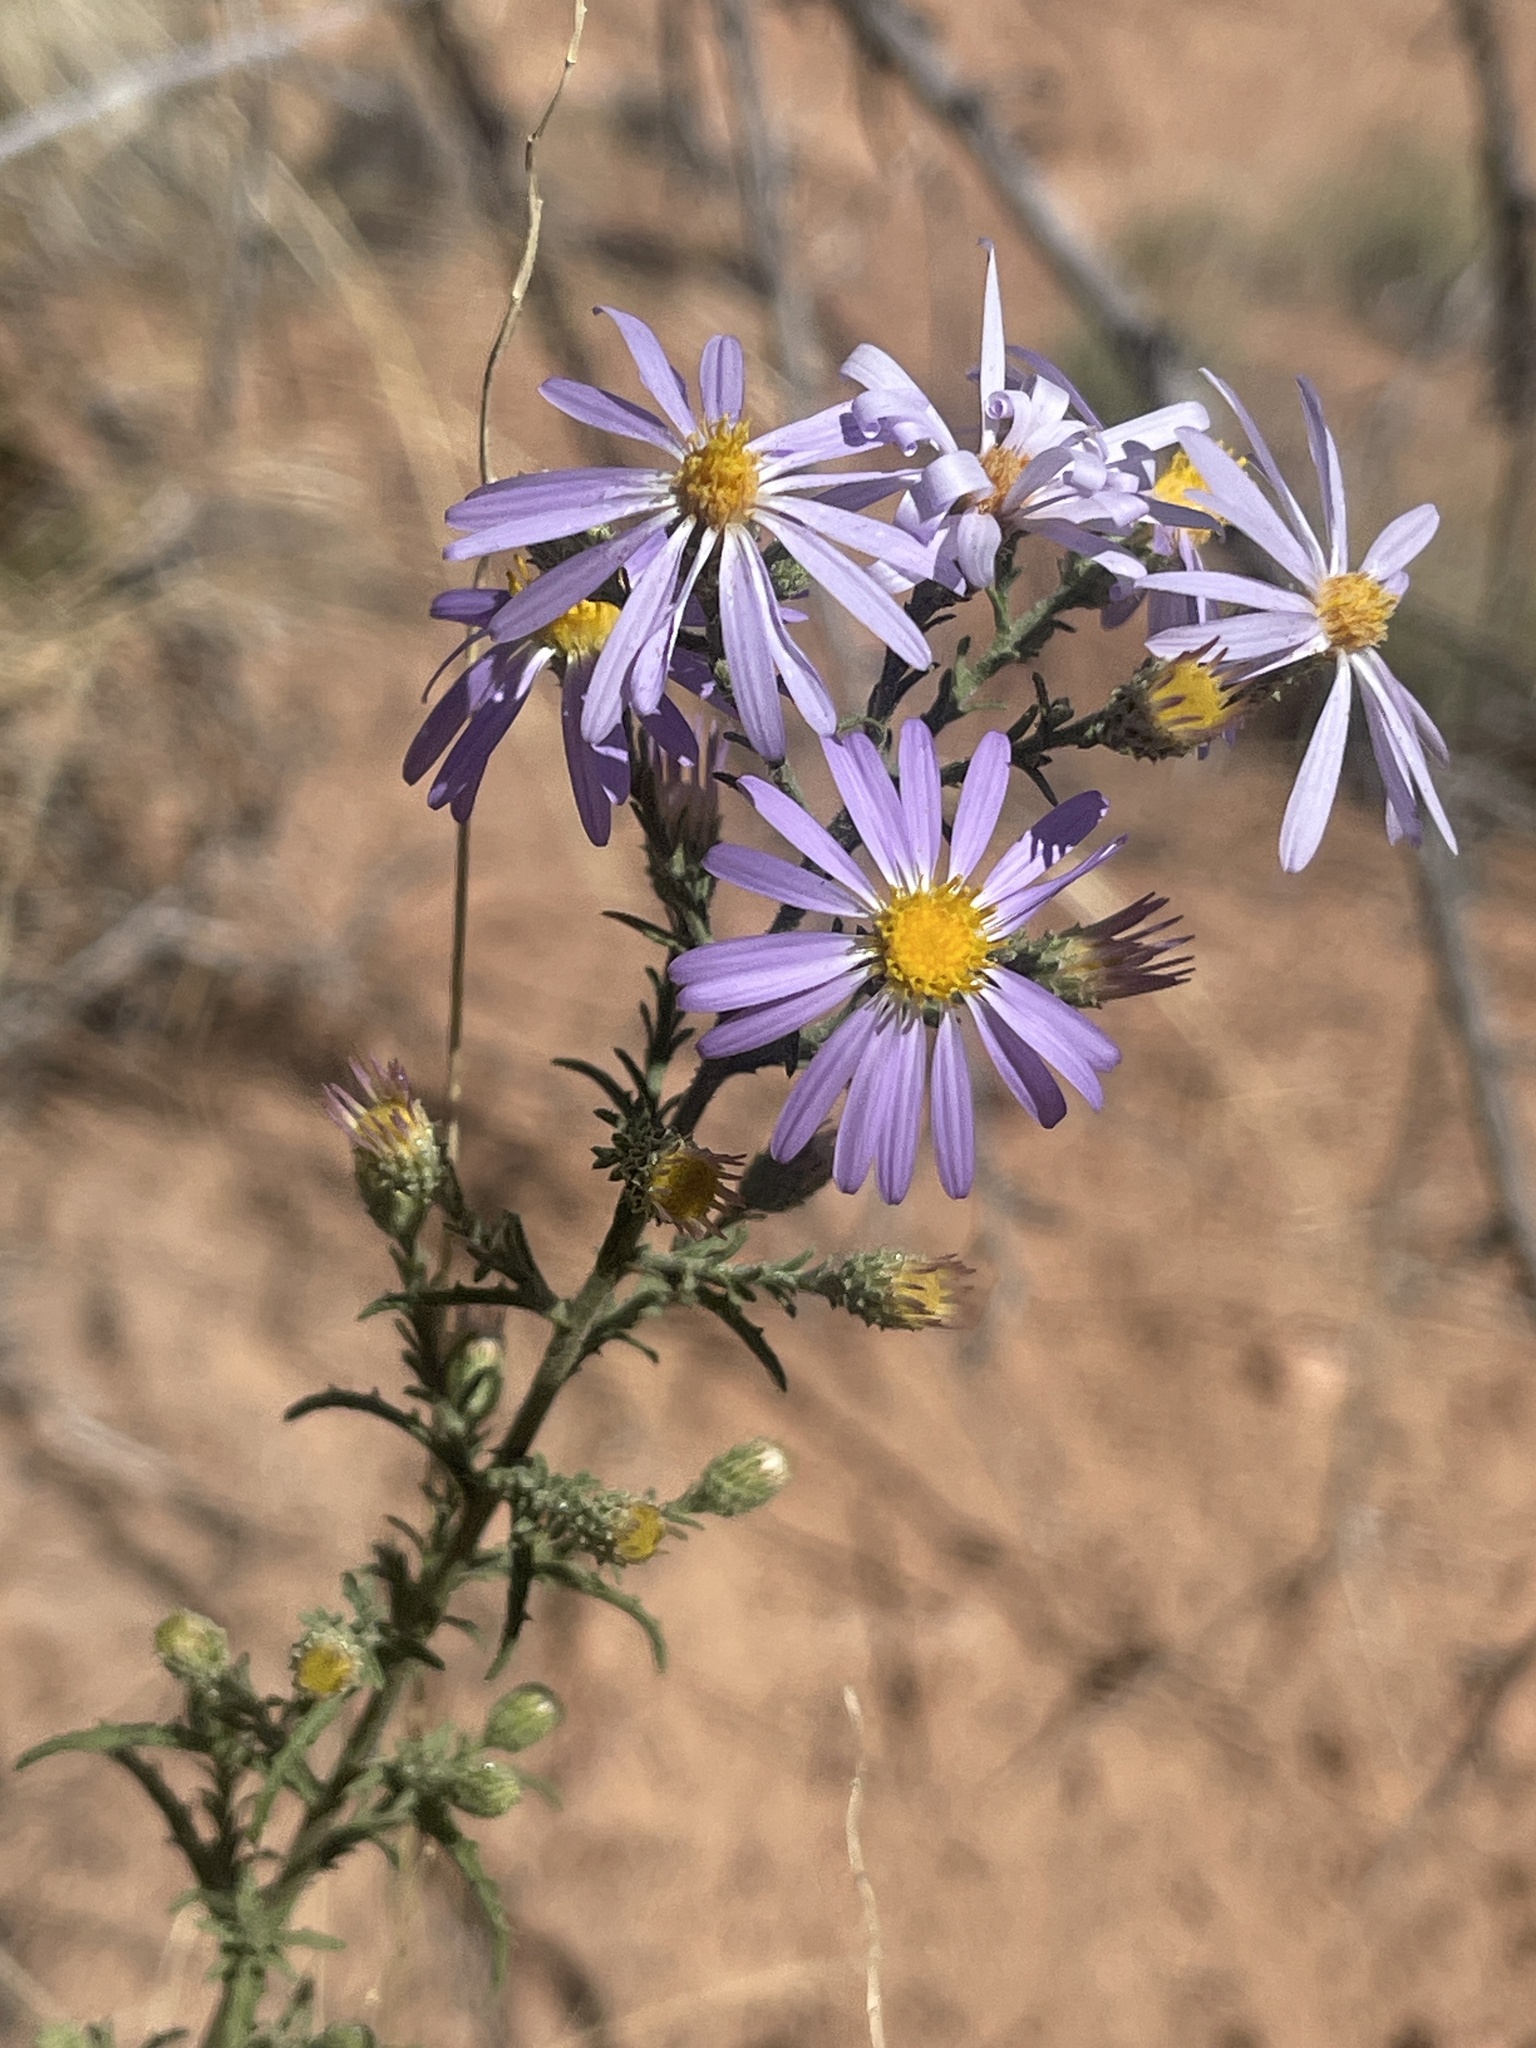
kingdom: Plantae
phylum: Tracheophyta
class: Magnoliopsida
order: Asterales
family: Asteraceae
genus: Dieteria
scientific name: Dieteria canescens
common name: Hoary-aster
